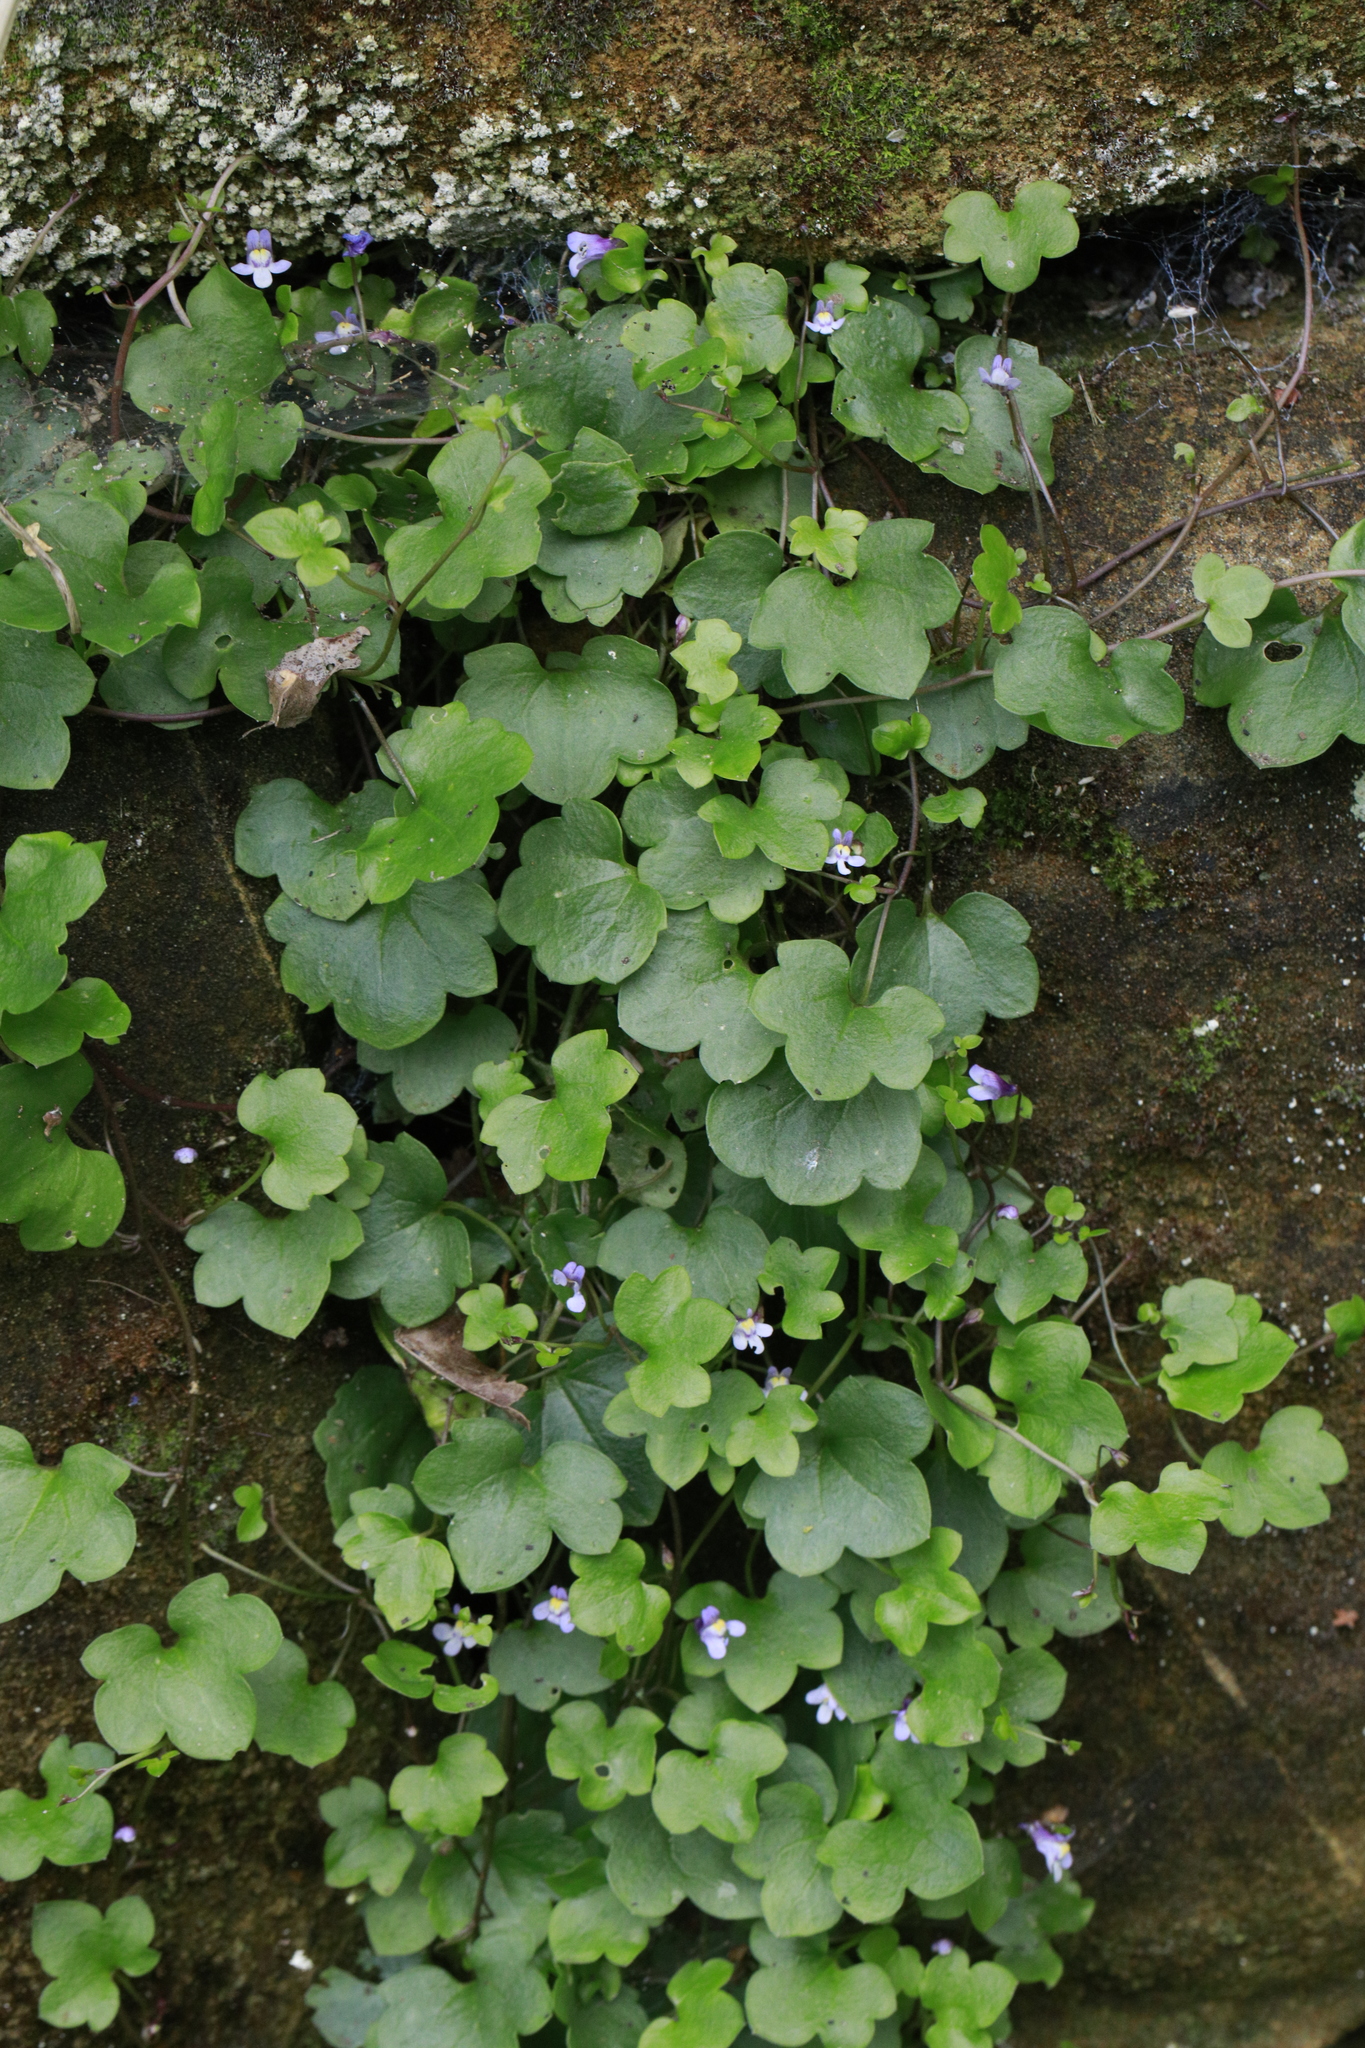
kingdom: Plantae
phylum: Tracheophyta
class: Magnoliopsida
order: Lamiales
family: Plantaginaceae
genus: Cymbalaria
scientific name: Cymbalaria muralis
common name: Ivy-leaved toadflax
